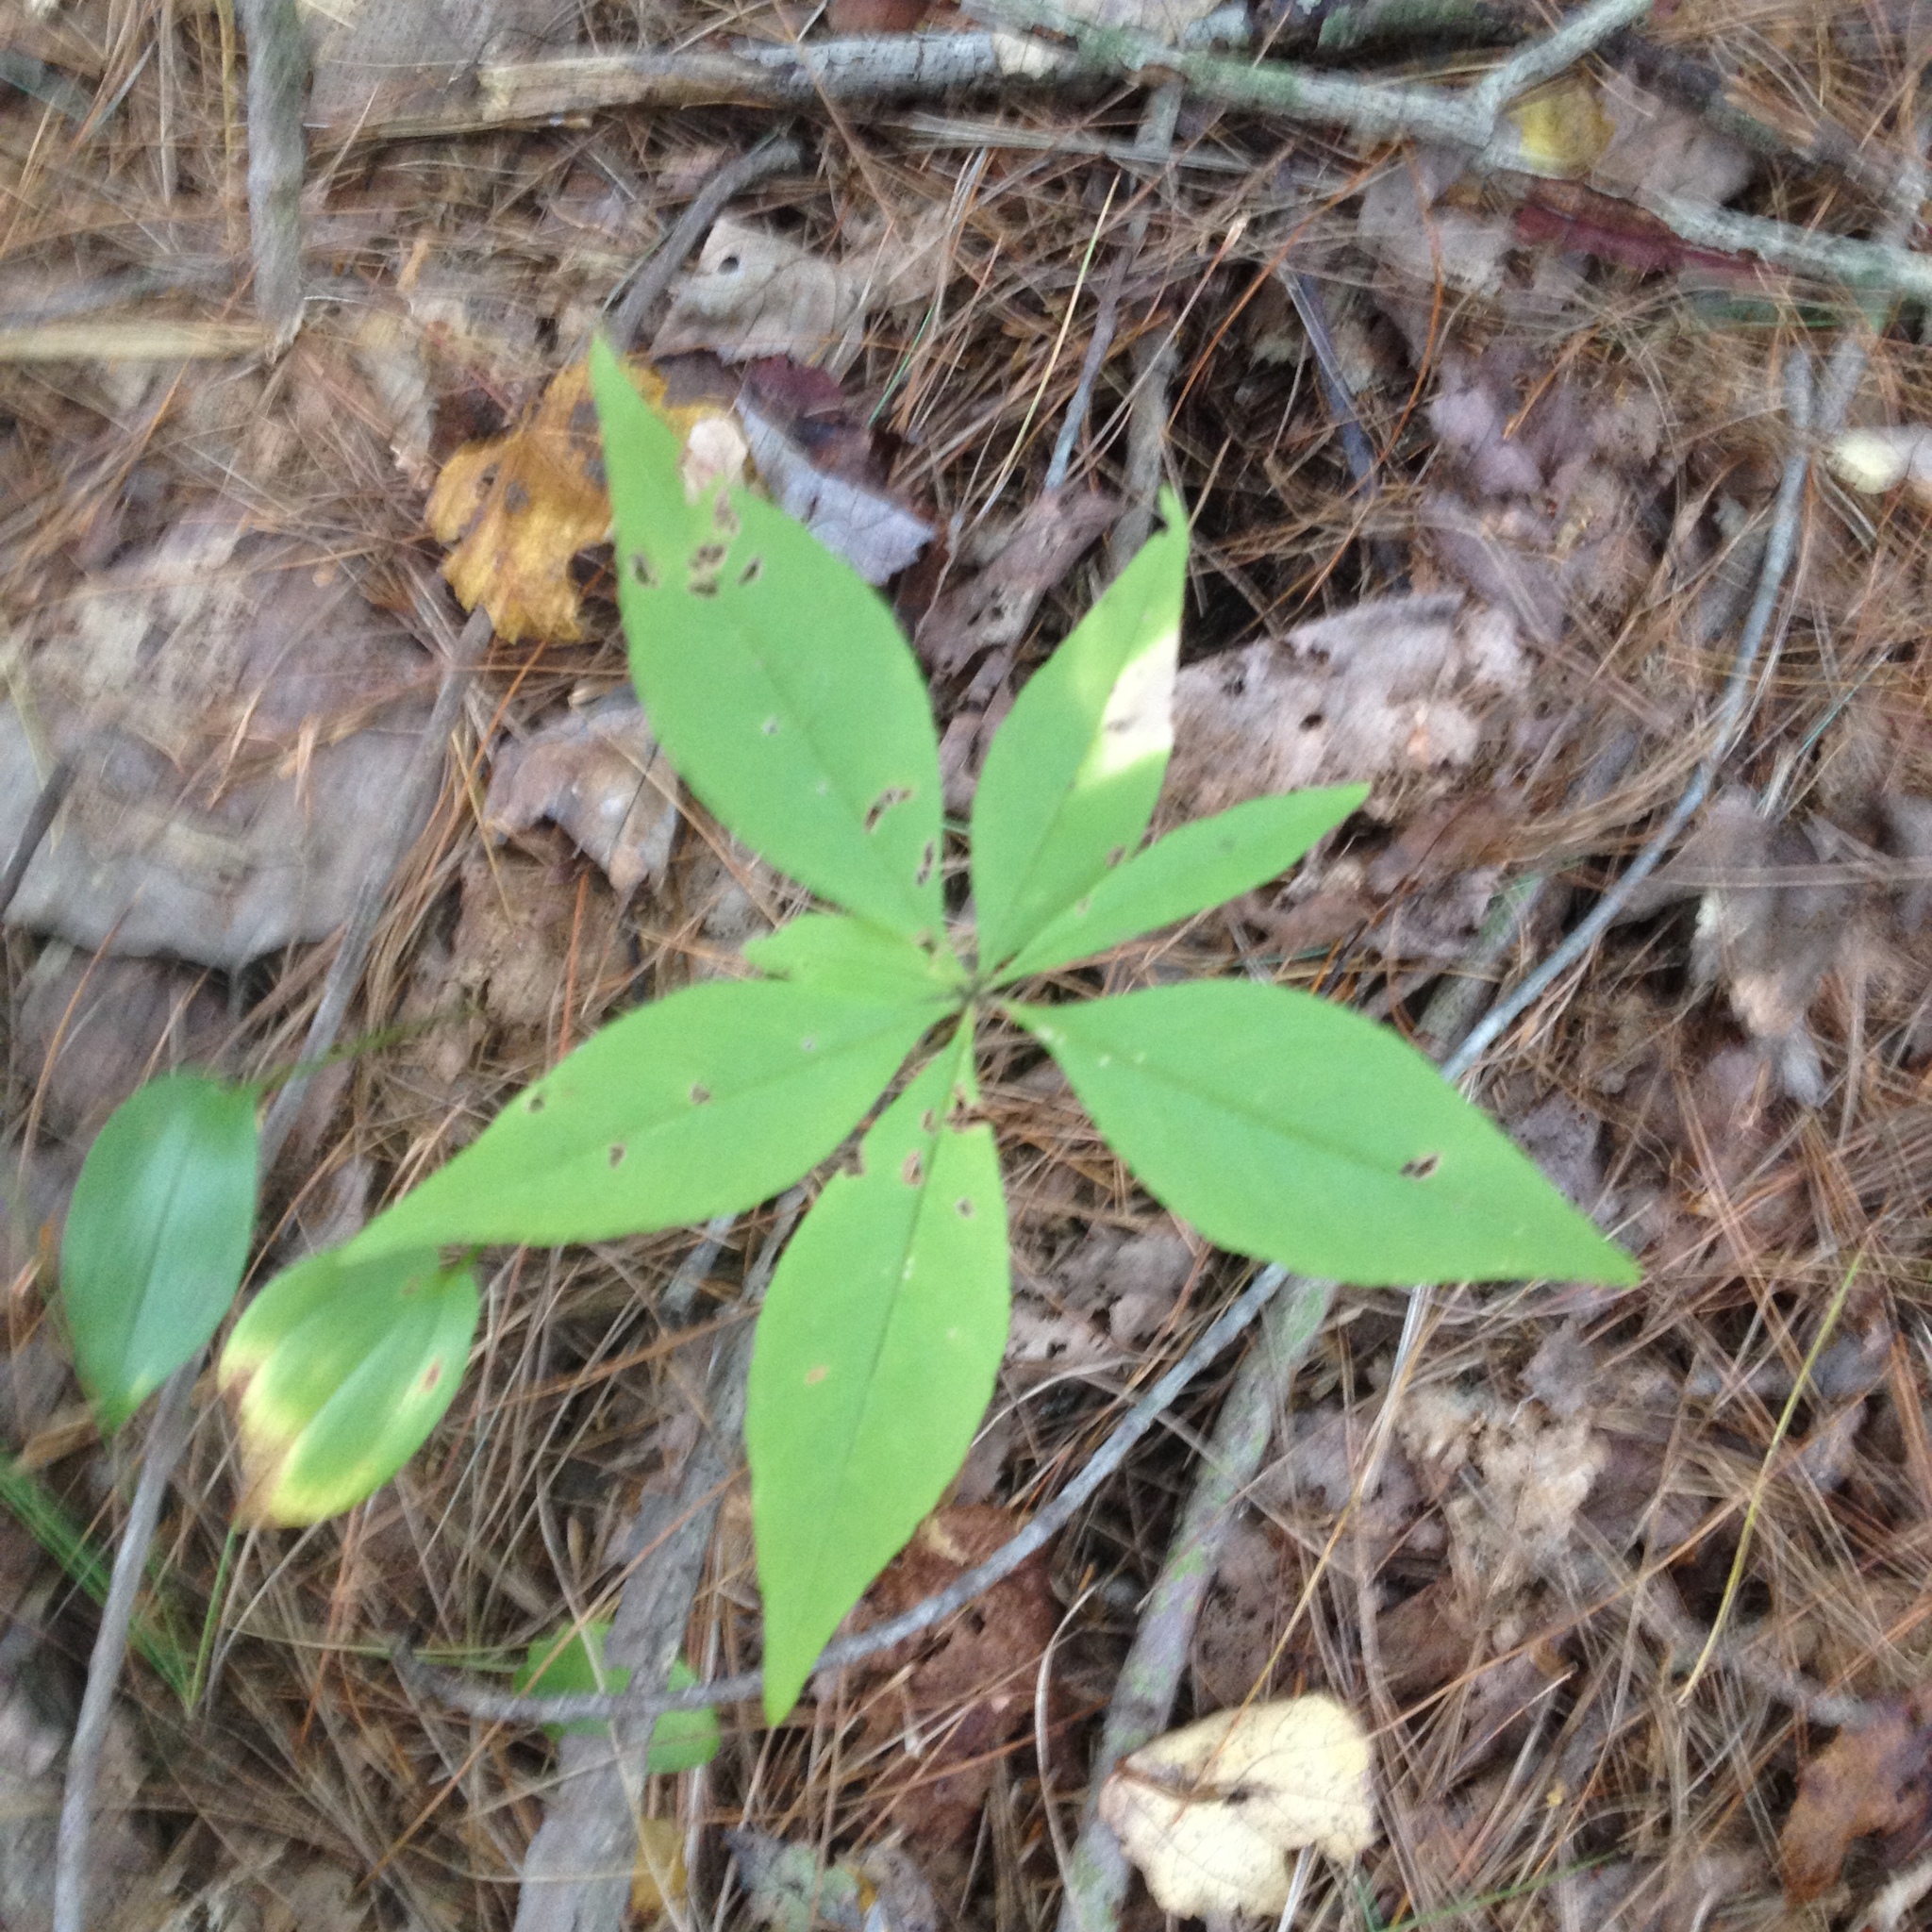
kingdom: Plantae
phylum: Tracheophyta
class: Magnoliopsida
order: Ericales
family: Primulaceae
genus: Lysimachia
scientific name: Lysimachia borealis
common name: American starflower
